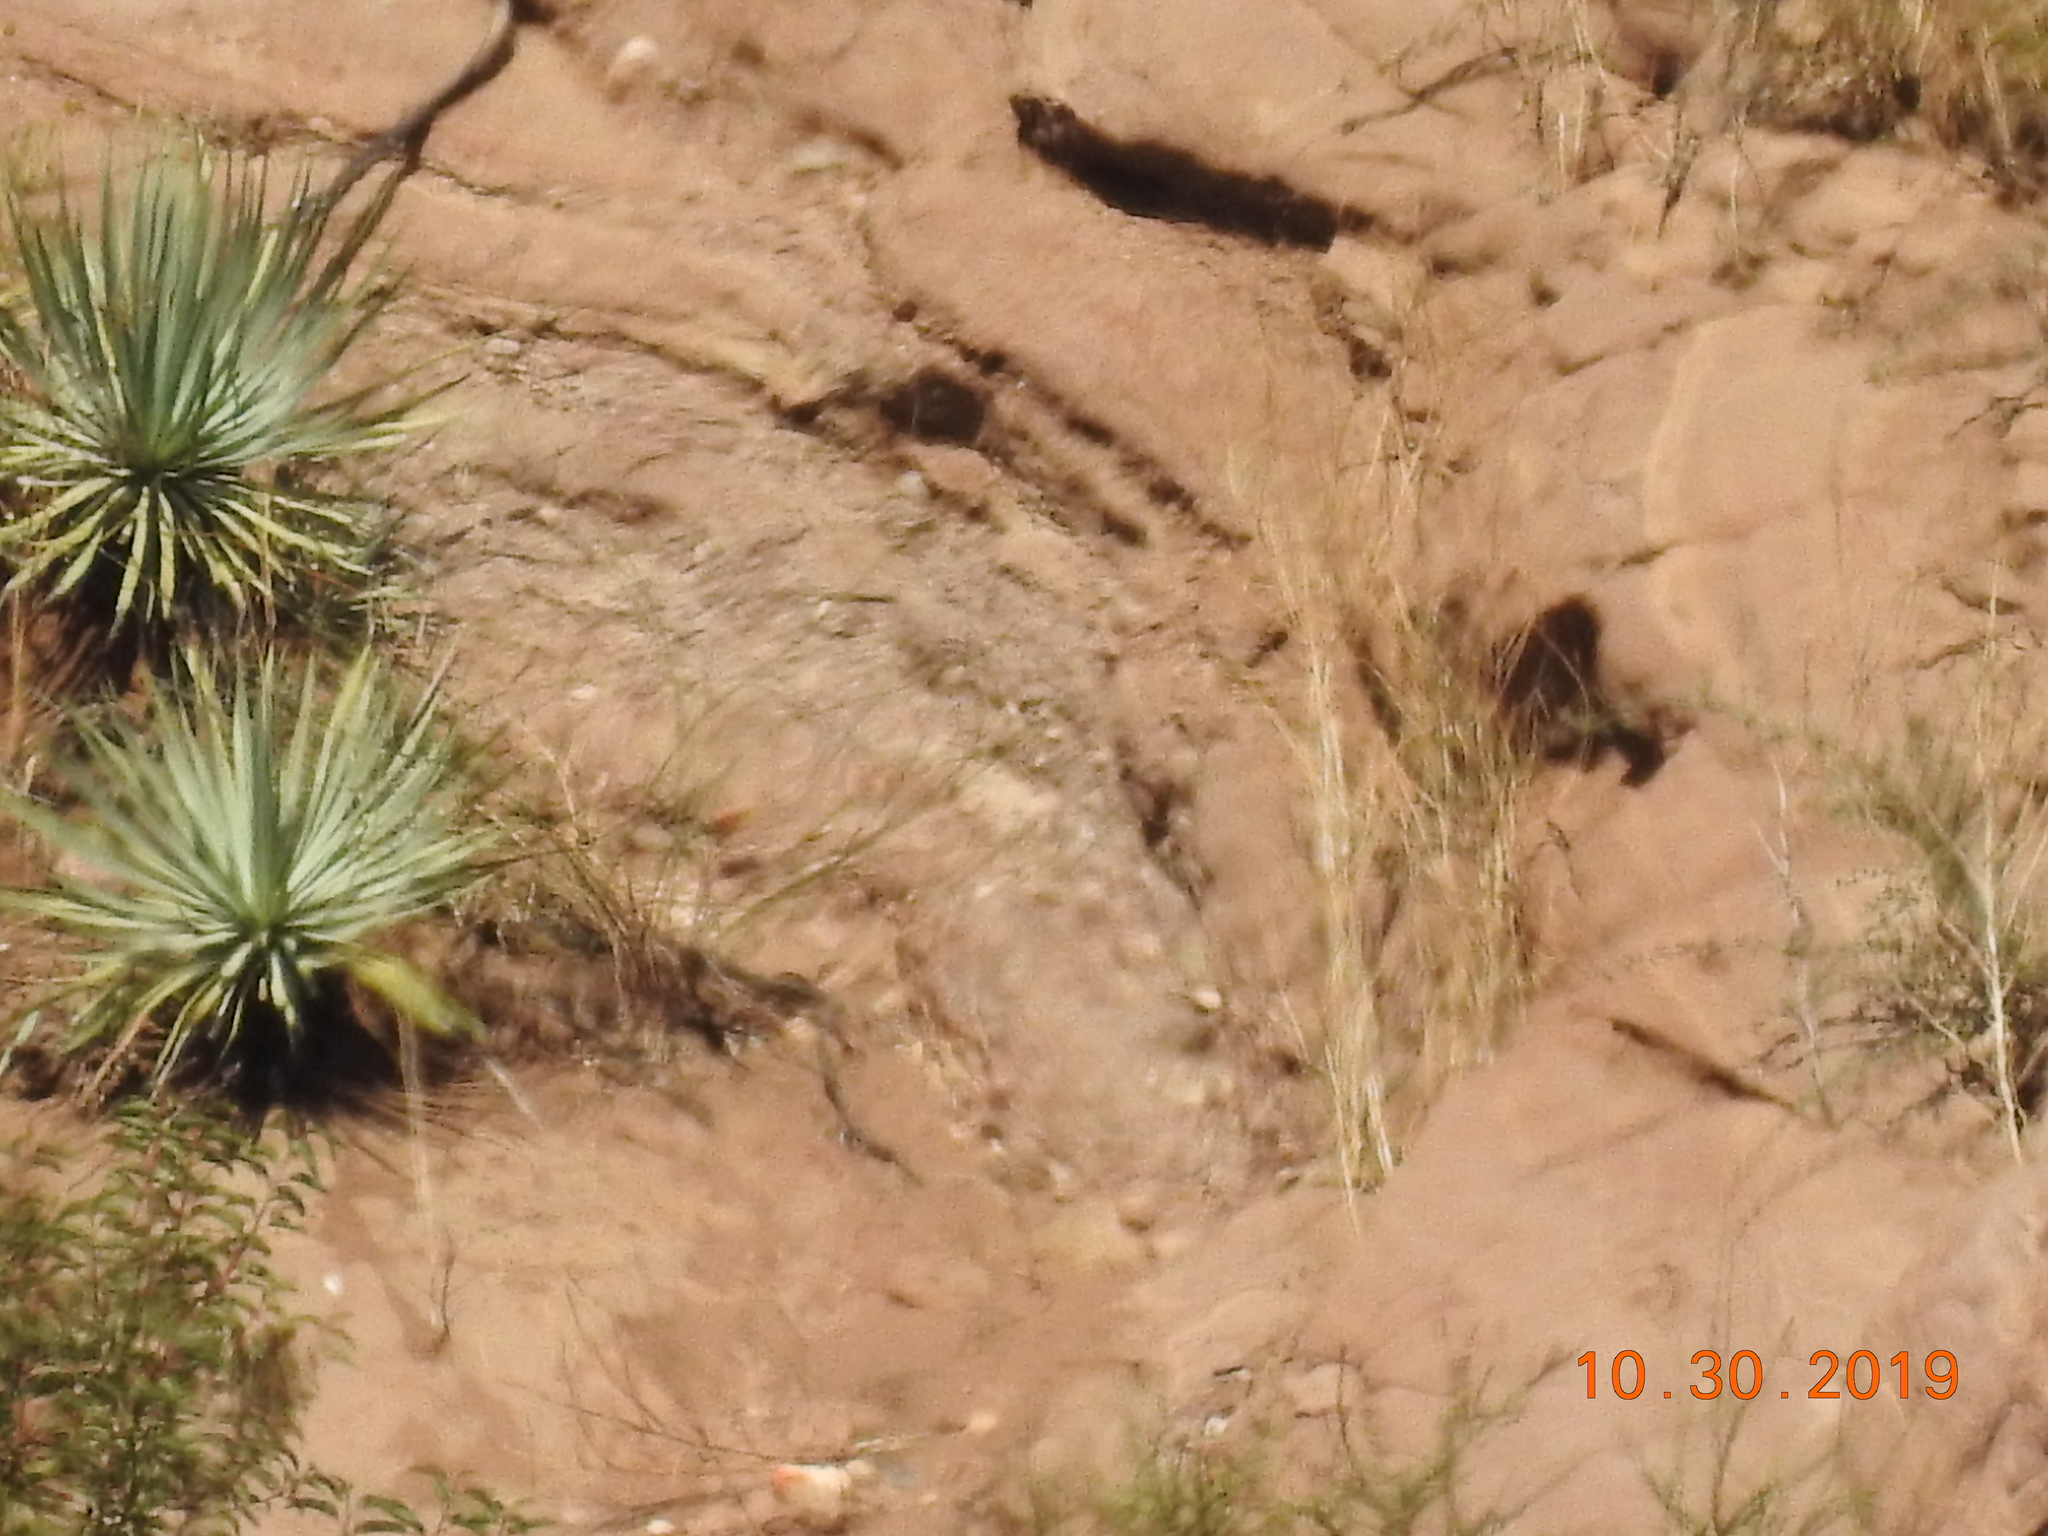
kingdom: Plantae
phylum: Tracheophyta
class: Liliopsida
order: Asparagales
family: Asparagaceae
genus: Hesperoyucca
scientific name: Hesperoyucca whipplei
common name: Our lord's-candle
